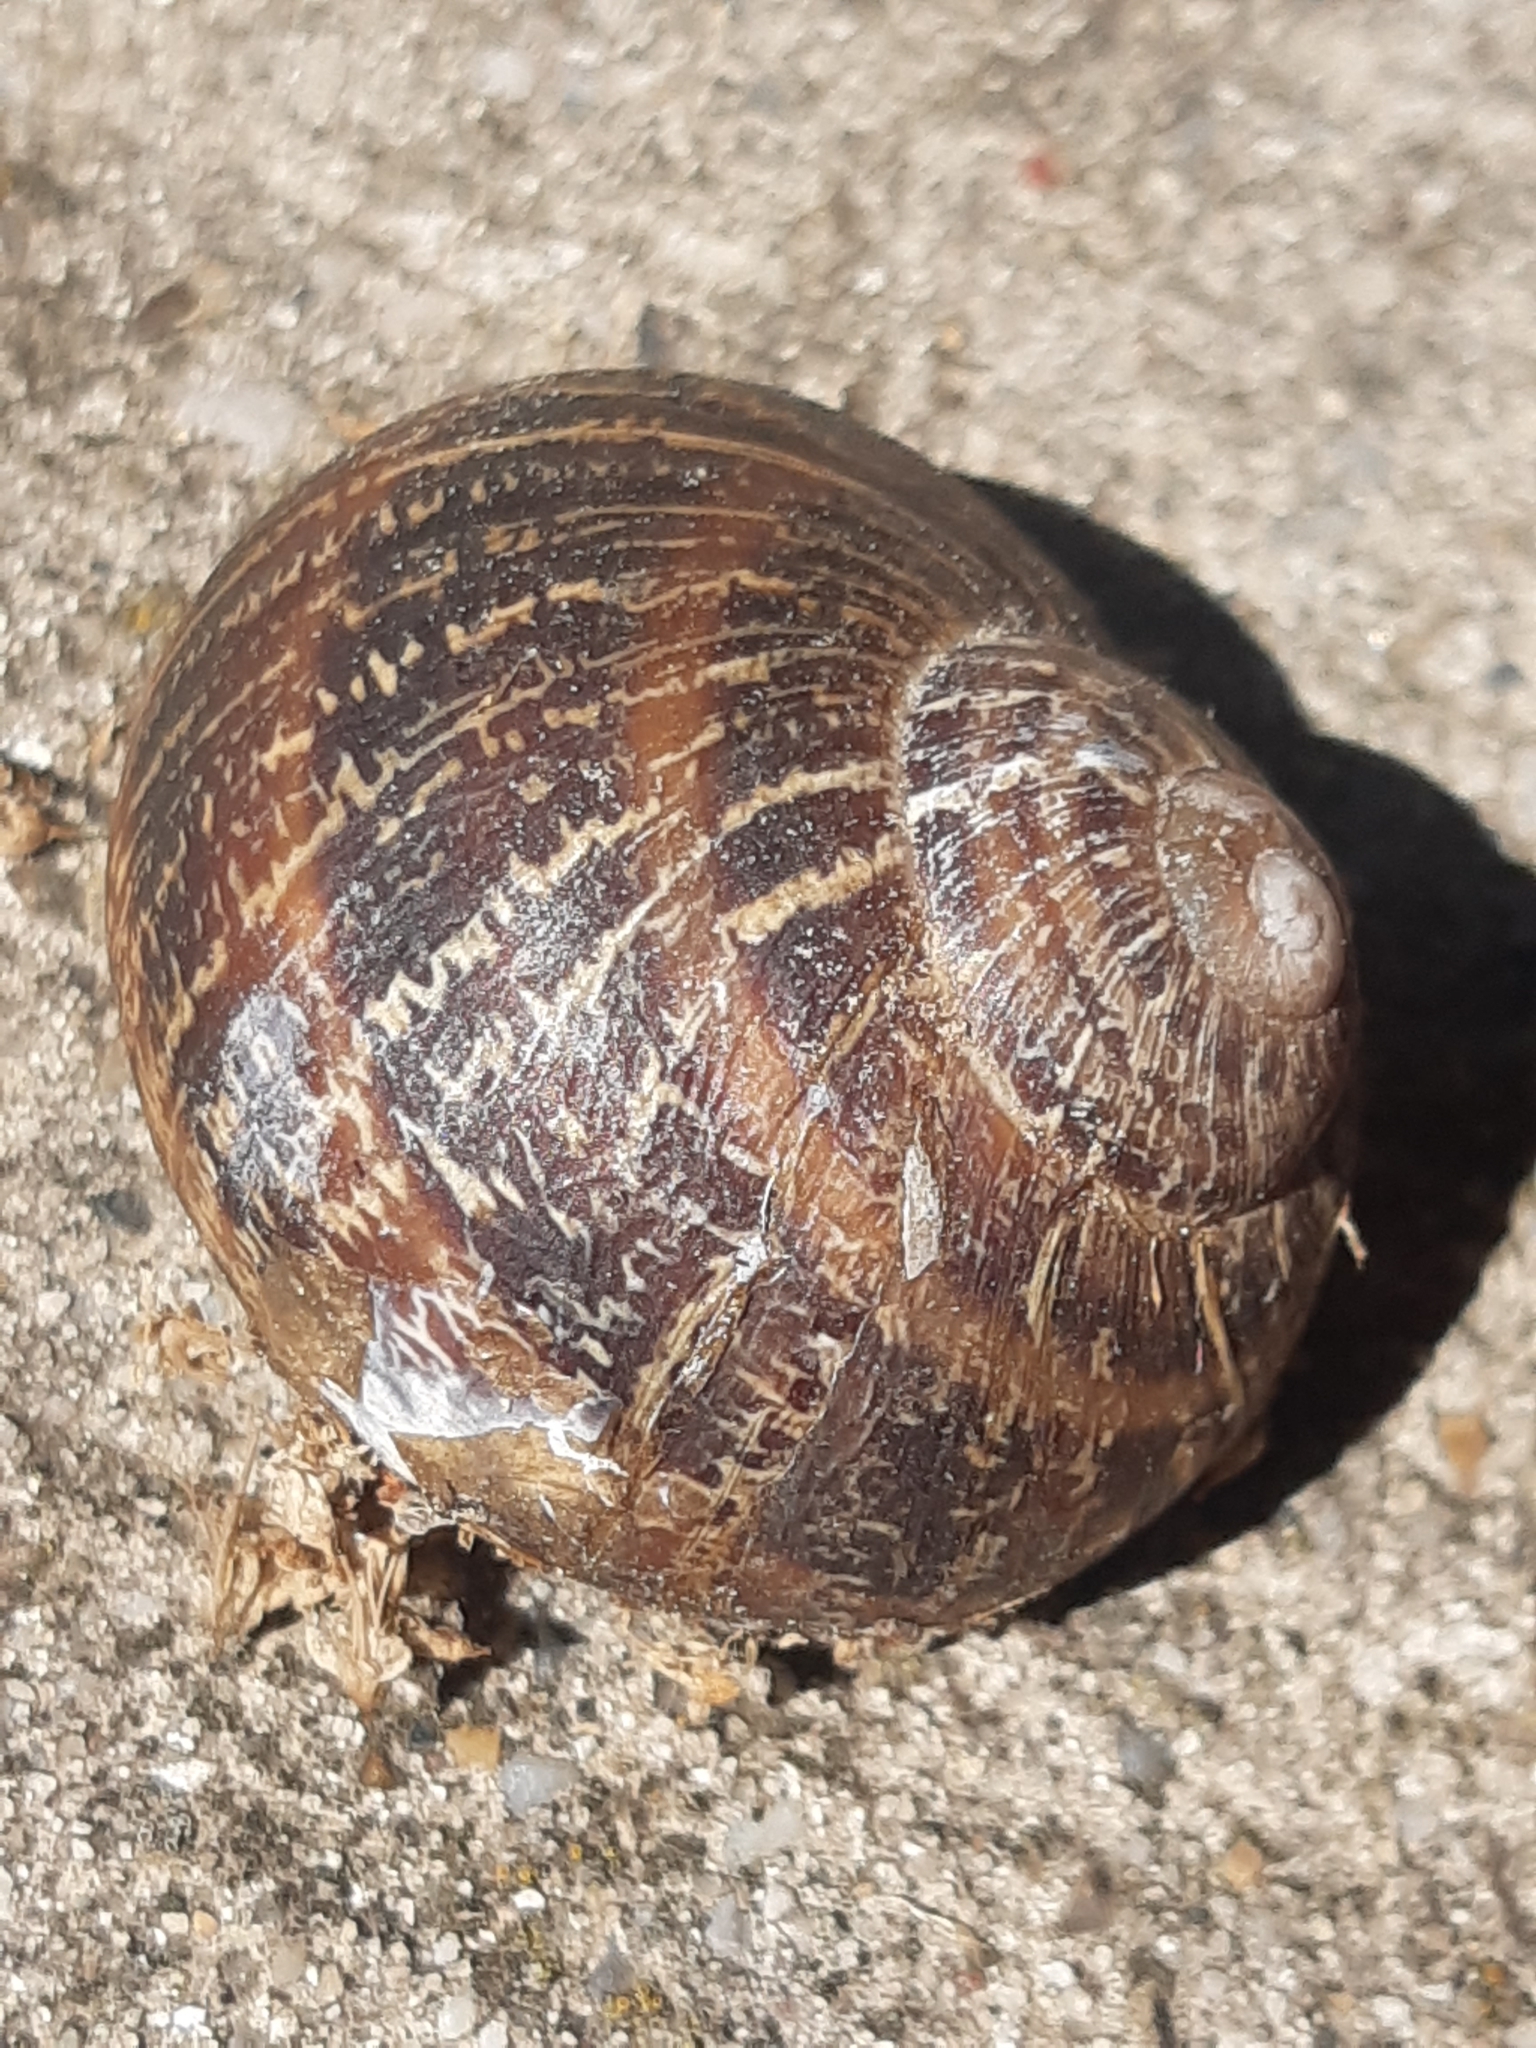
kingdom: Animalia
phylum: Mollusca
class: Gastropoda
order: Stylommatophora
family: Helicidae
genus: Cornu
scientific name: Cornu aspersum
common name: Brown garden snail
